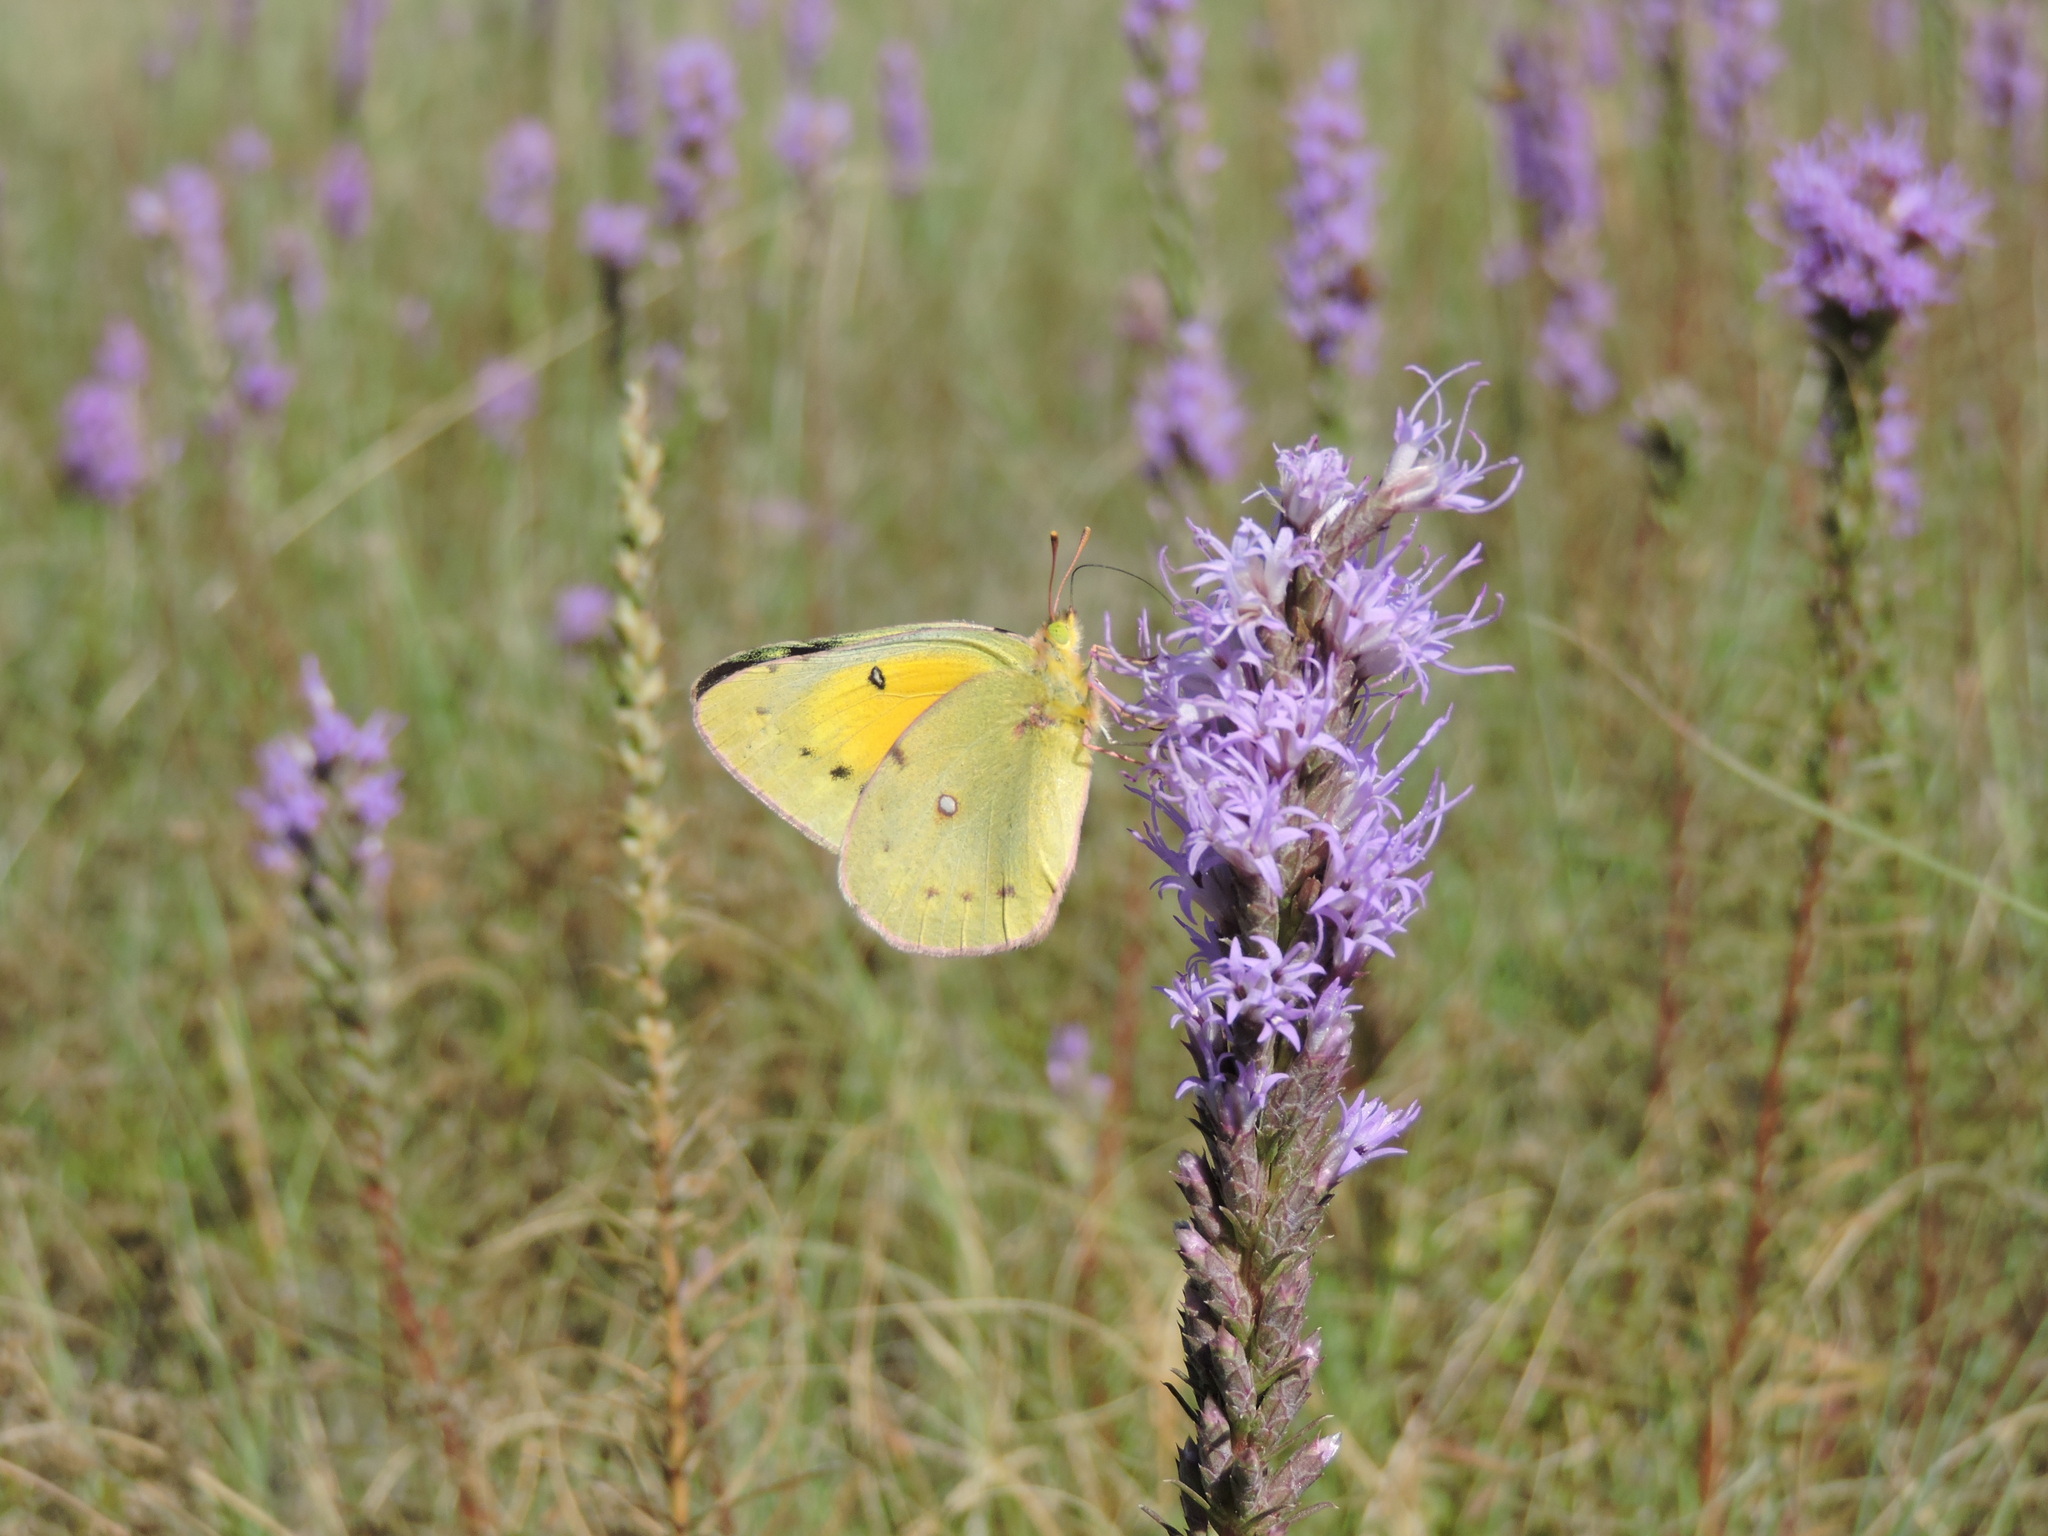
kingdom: Animalia
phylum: Arthropoda
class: Insecta
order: Lepidoptera
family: Pieridae
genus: Colias
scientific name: Colias eurytheme
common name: Alfalfa butterfly
